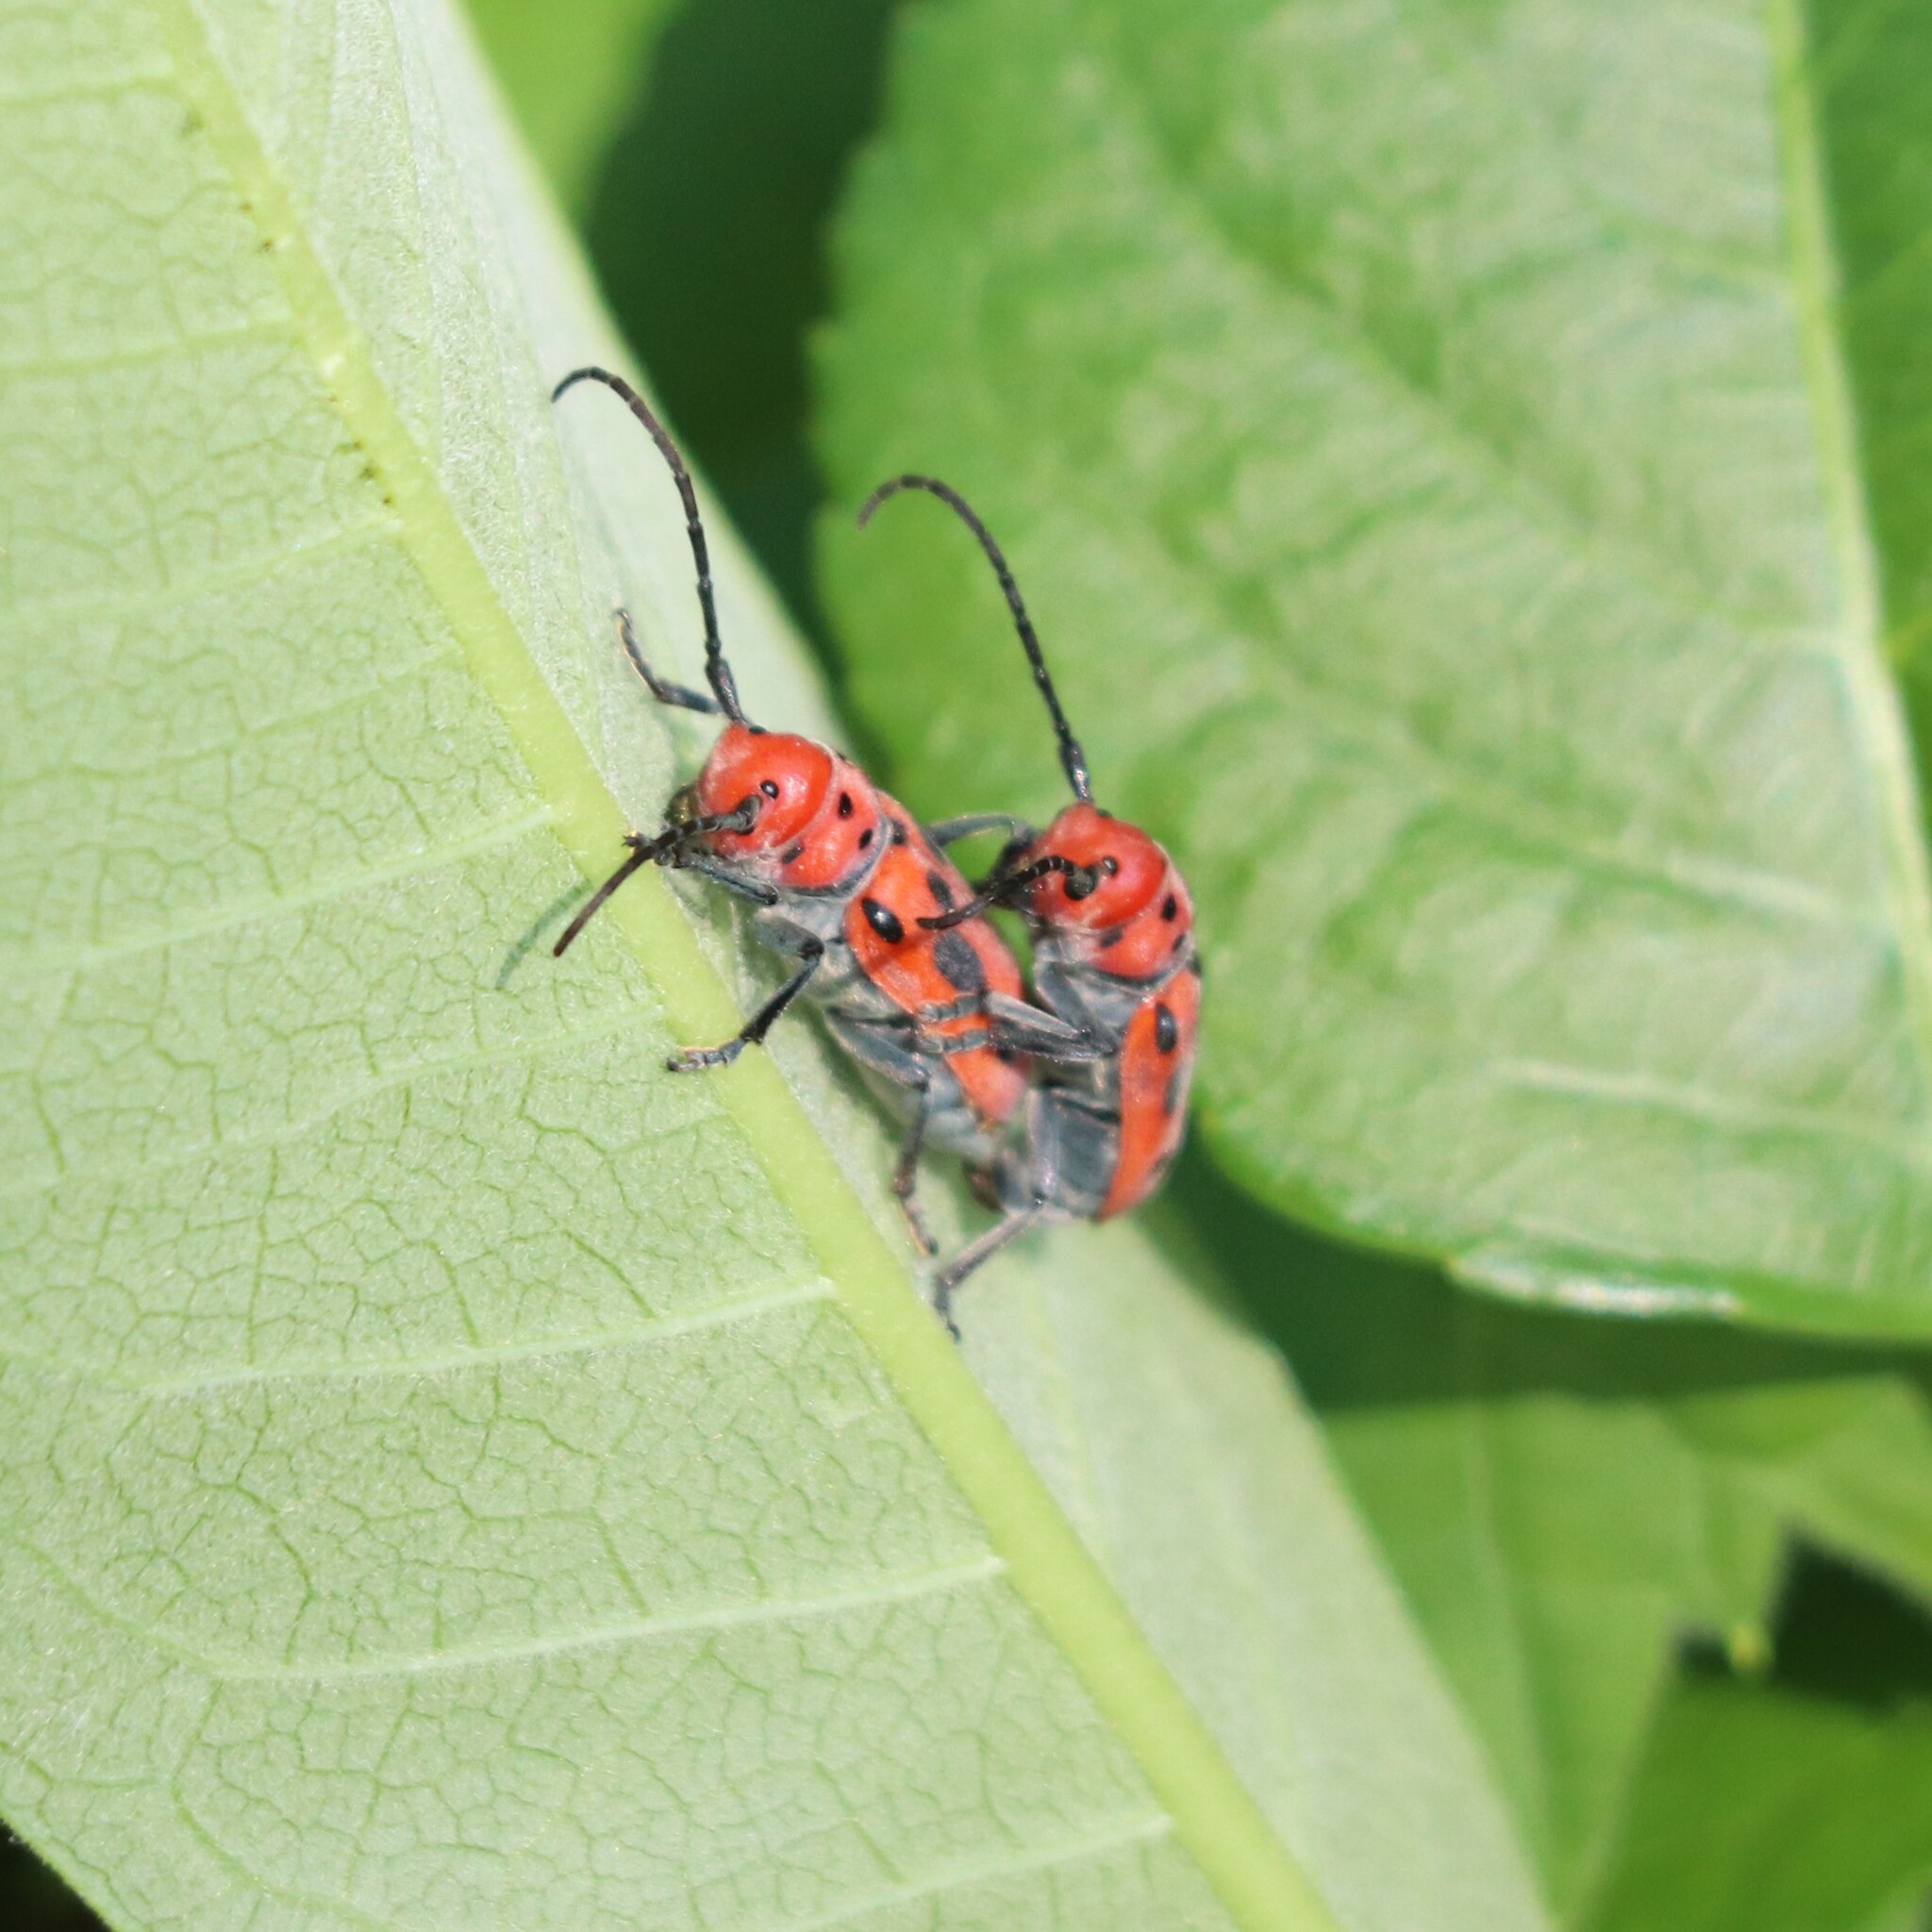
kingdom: Animalia
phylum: Arthropoda
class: Insecta
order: Coleoptera
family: Cerambycidae
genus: Tetraopes
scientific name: Tetraopes tetrophthalmus
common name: Red milkweed beetle
